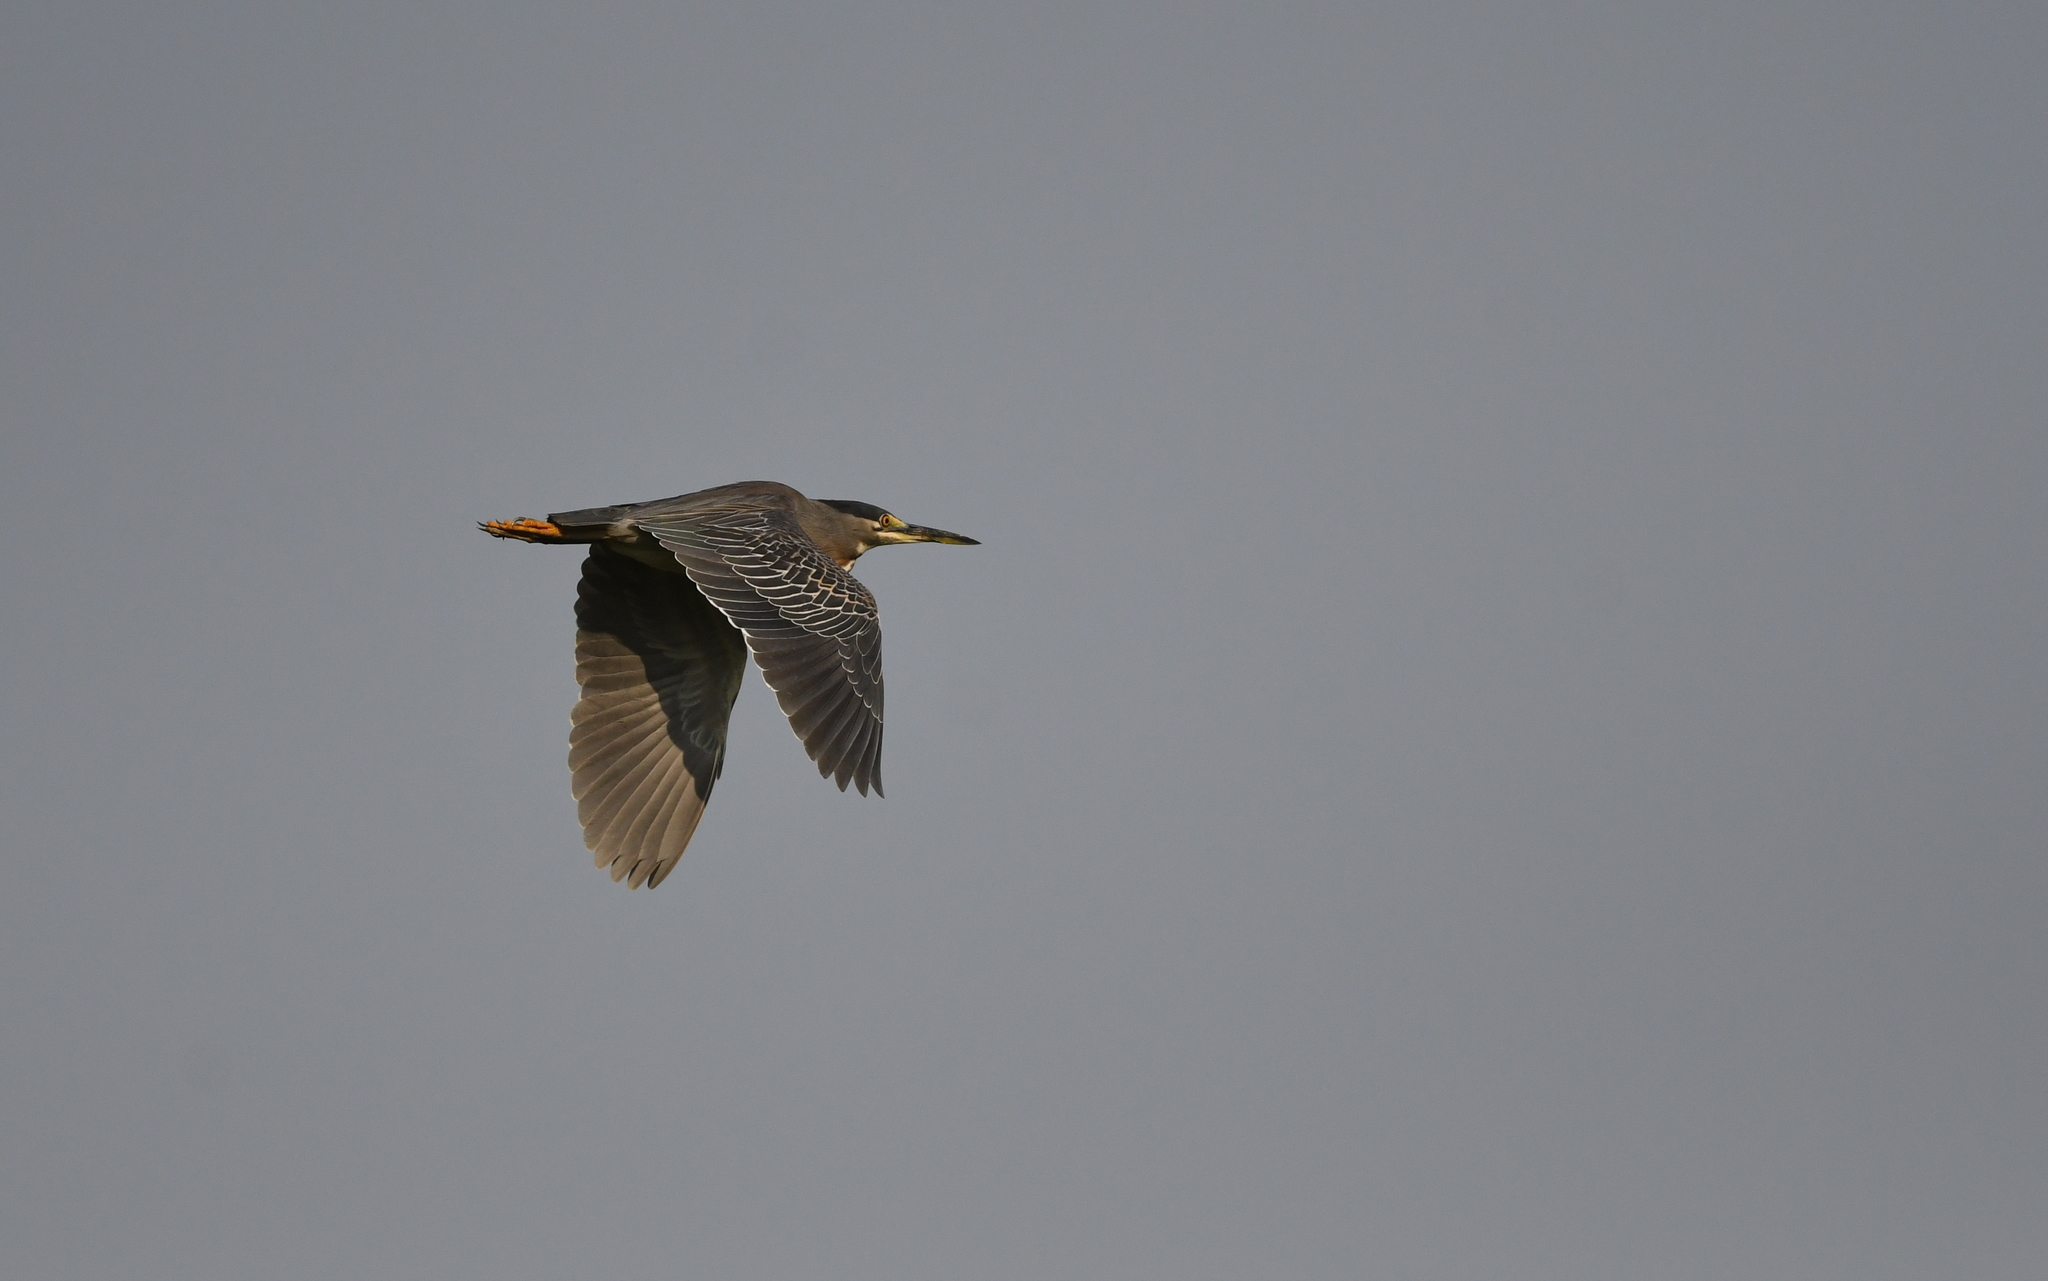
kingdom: Animalia
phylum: Chordata
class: Aves
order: Pelecaniformes
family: Ardeidae
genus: Butorides
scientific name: Butorides striata
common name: Striated heron
